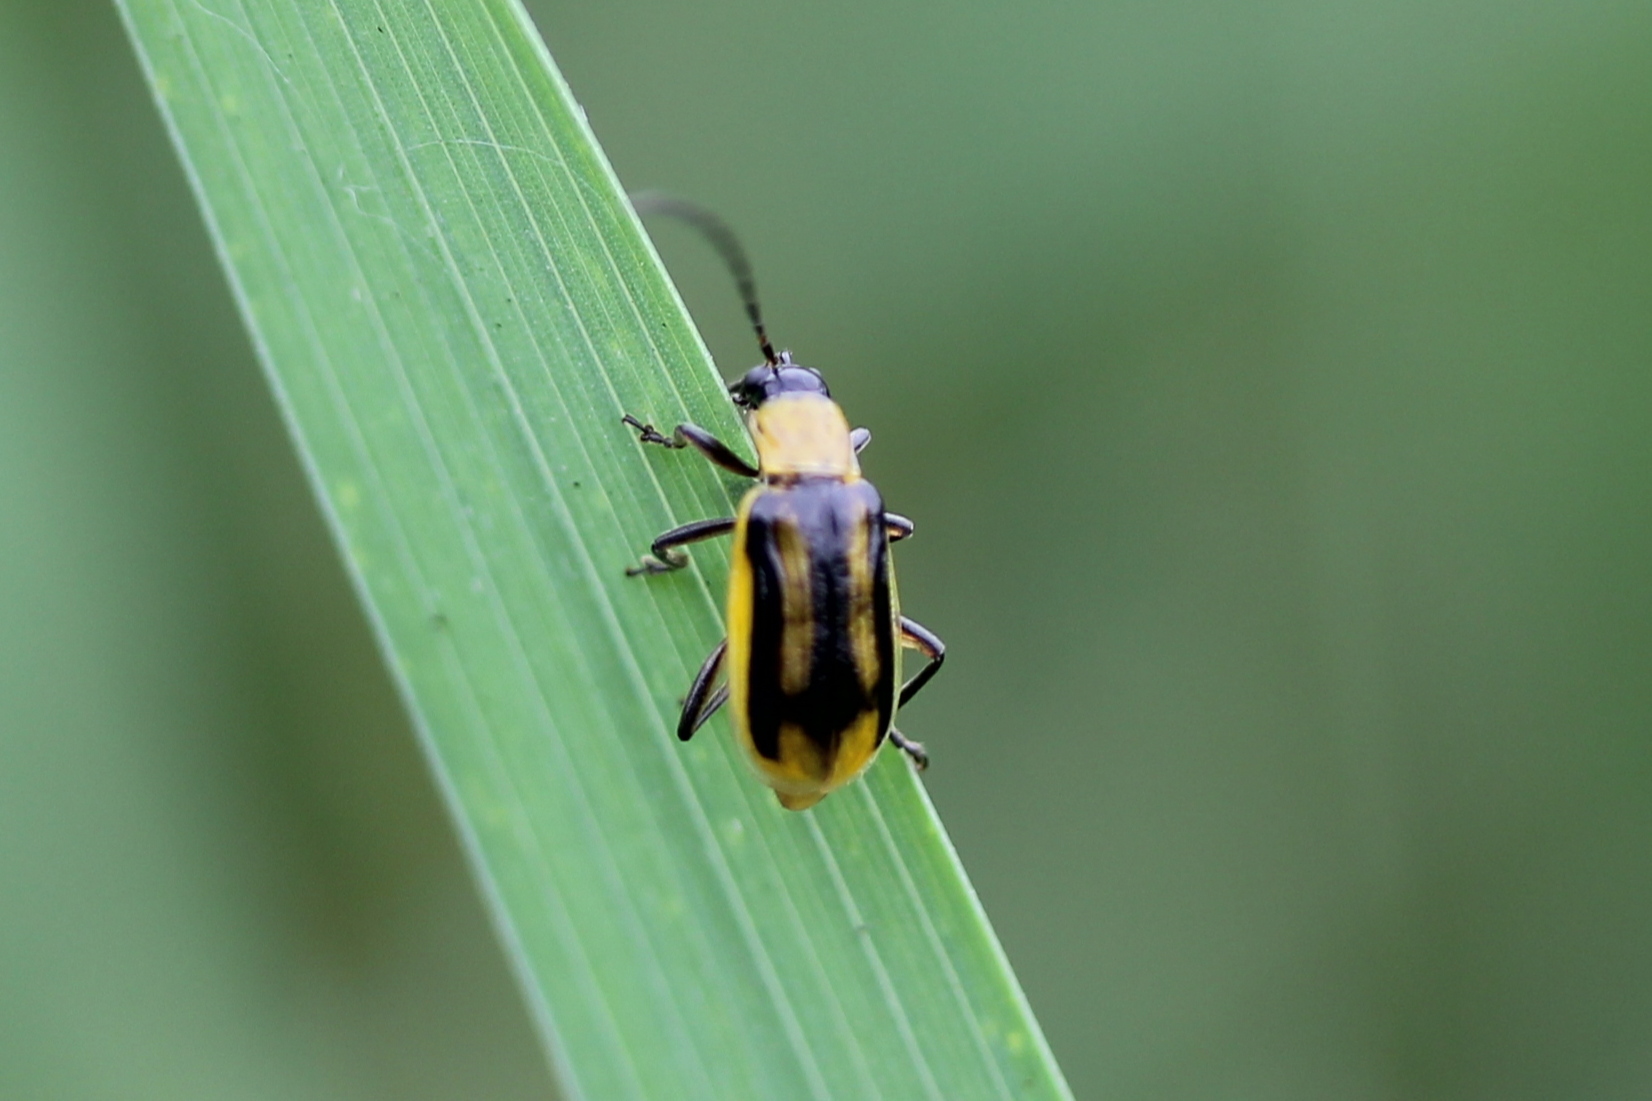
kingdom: Animalia
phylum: Arthropoda
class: Insecta
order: Coleoptera
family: Chrysomelidae
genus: Diabrotica
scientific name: Diabrotica virgifera
